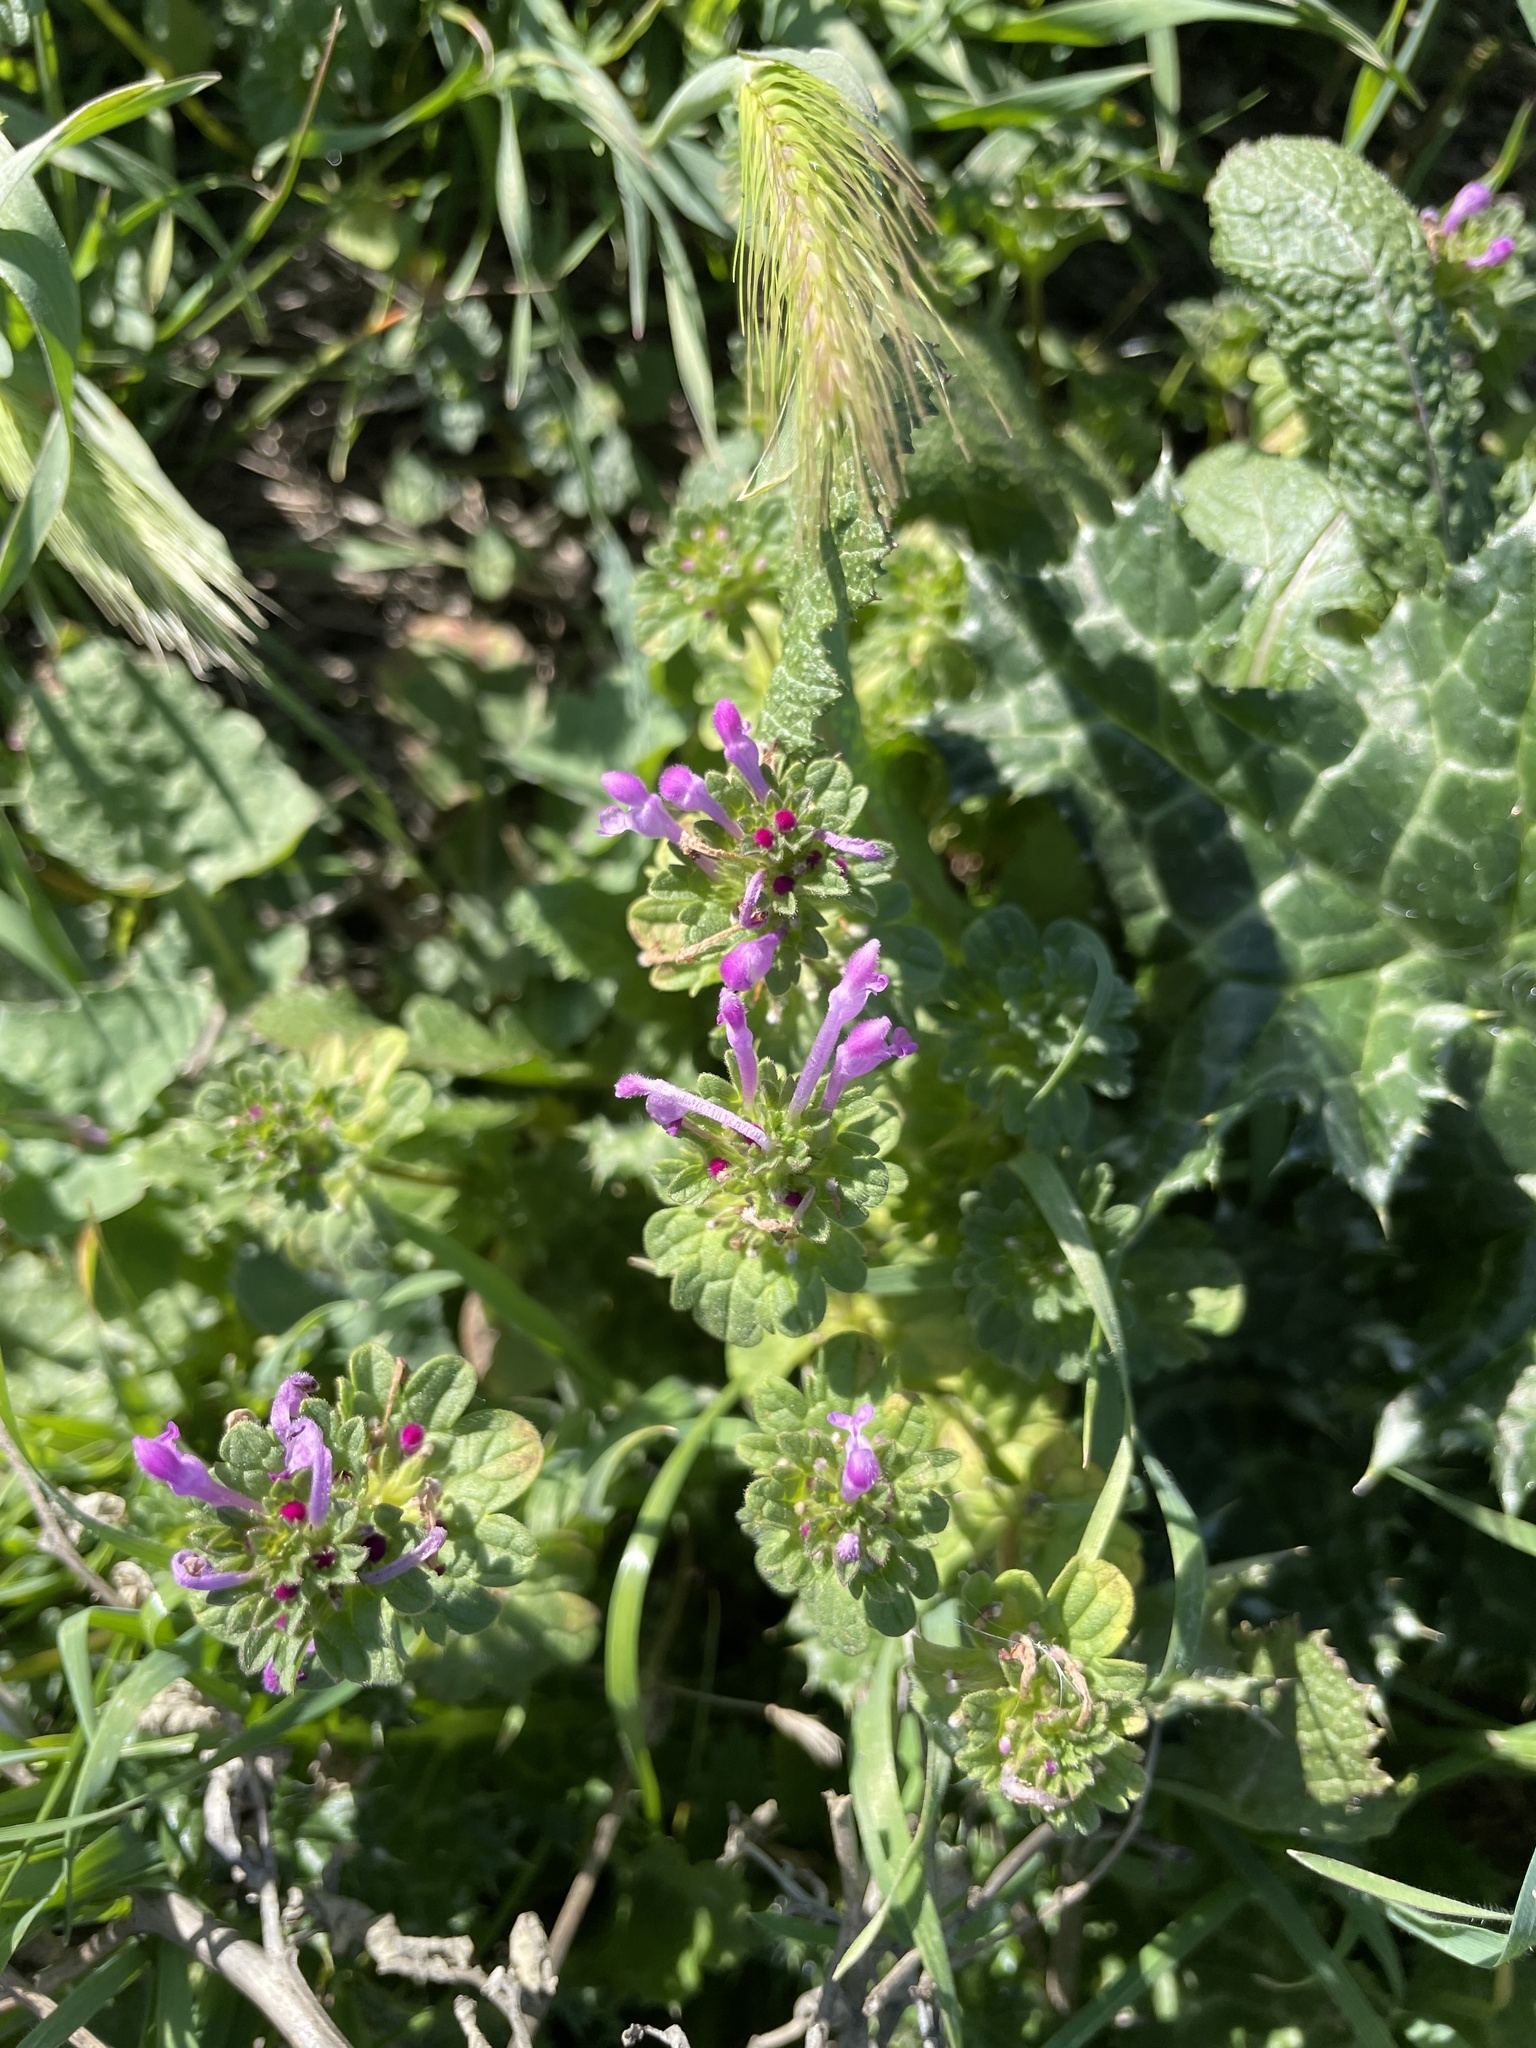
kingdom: Plantae
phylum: Tracheophyta
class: Magnoliopsida
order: Lamiales
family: Lamiaceae
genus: Lamium
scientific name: Lamium amplexicaule
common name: Henbit dead-nettle
